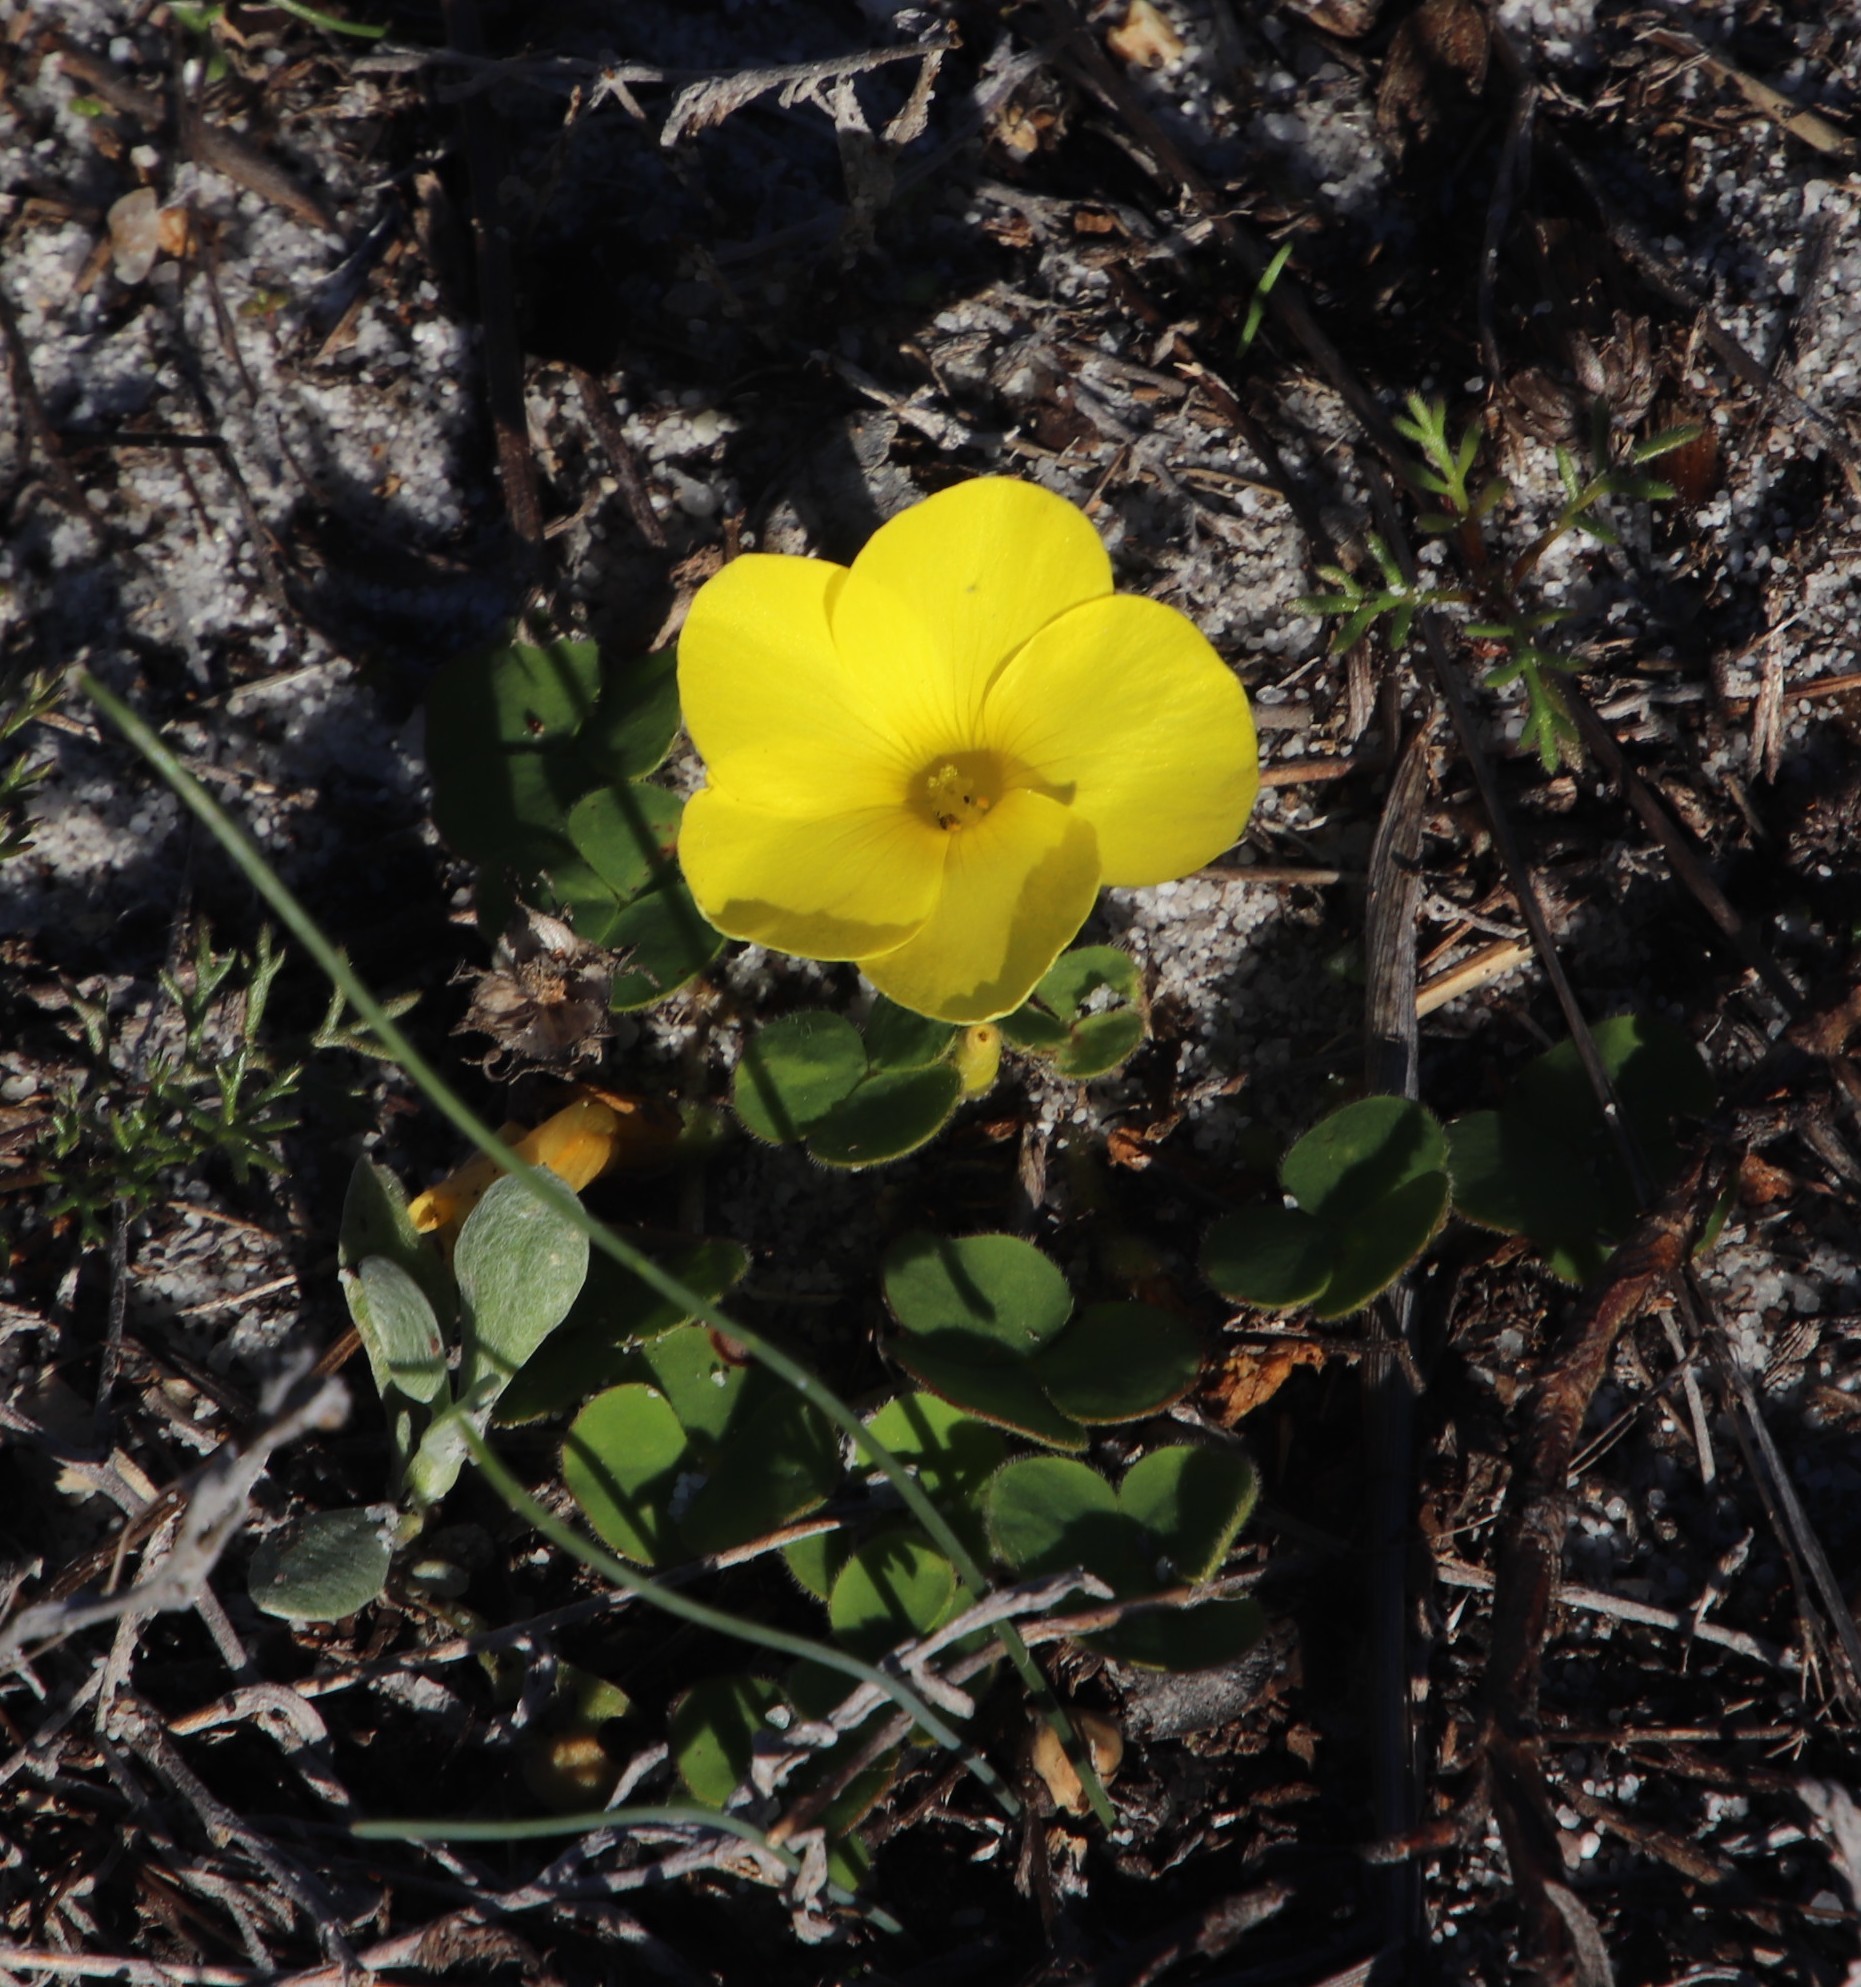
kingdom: Plantae
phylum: Tracheophyta
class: Magnoliopsida
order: Oxalidales
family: Oxalidaceae
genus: Oxalis
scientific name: Oxalis luteola
